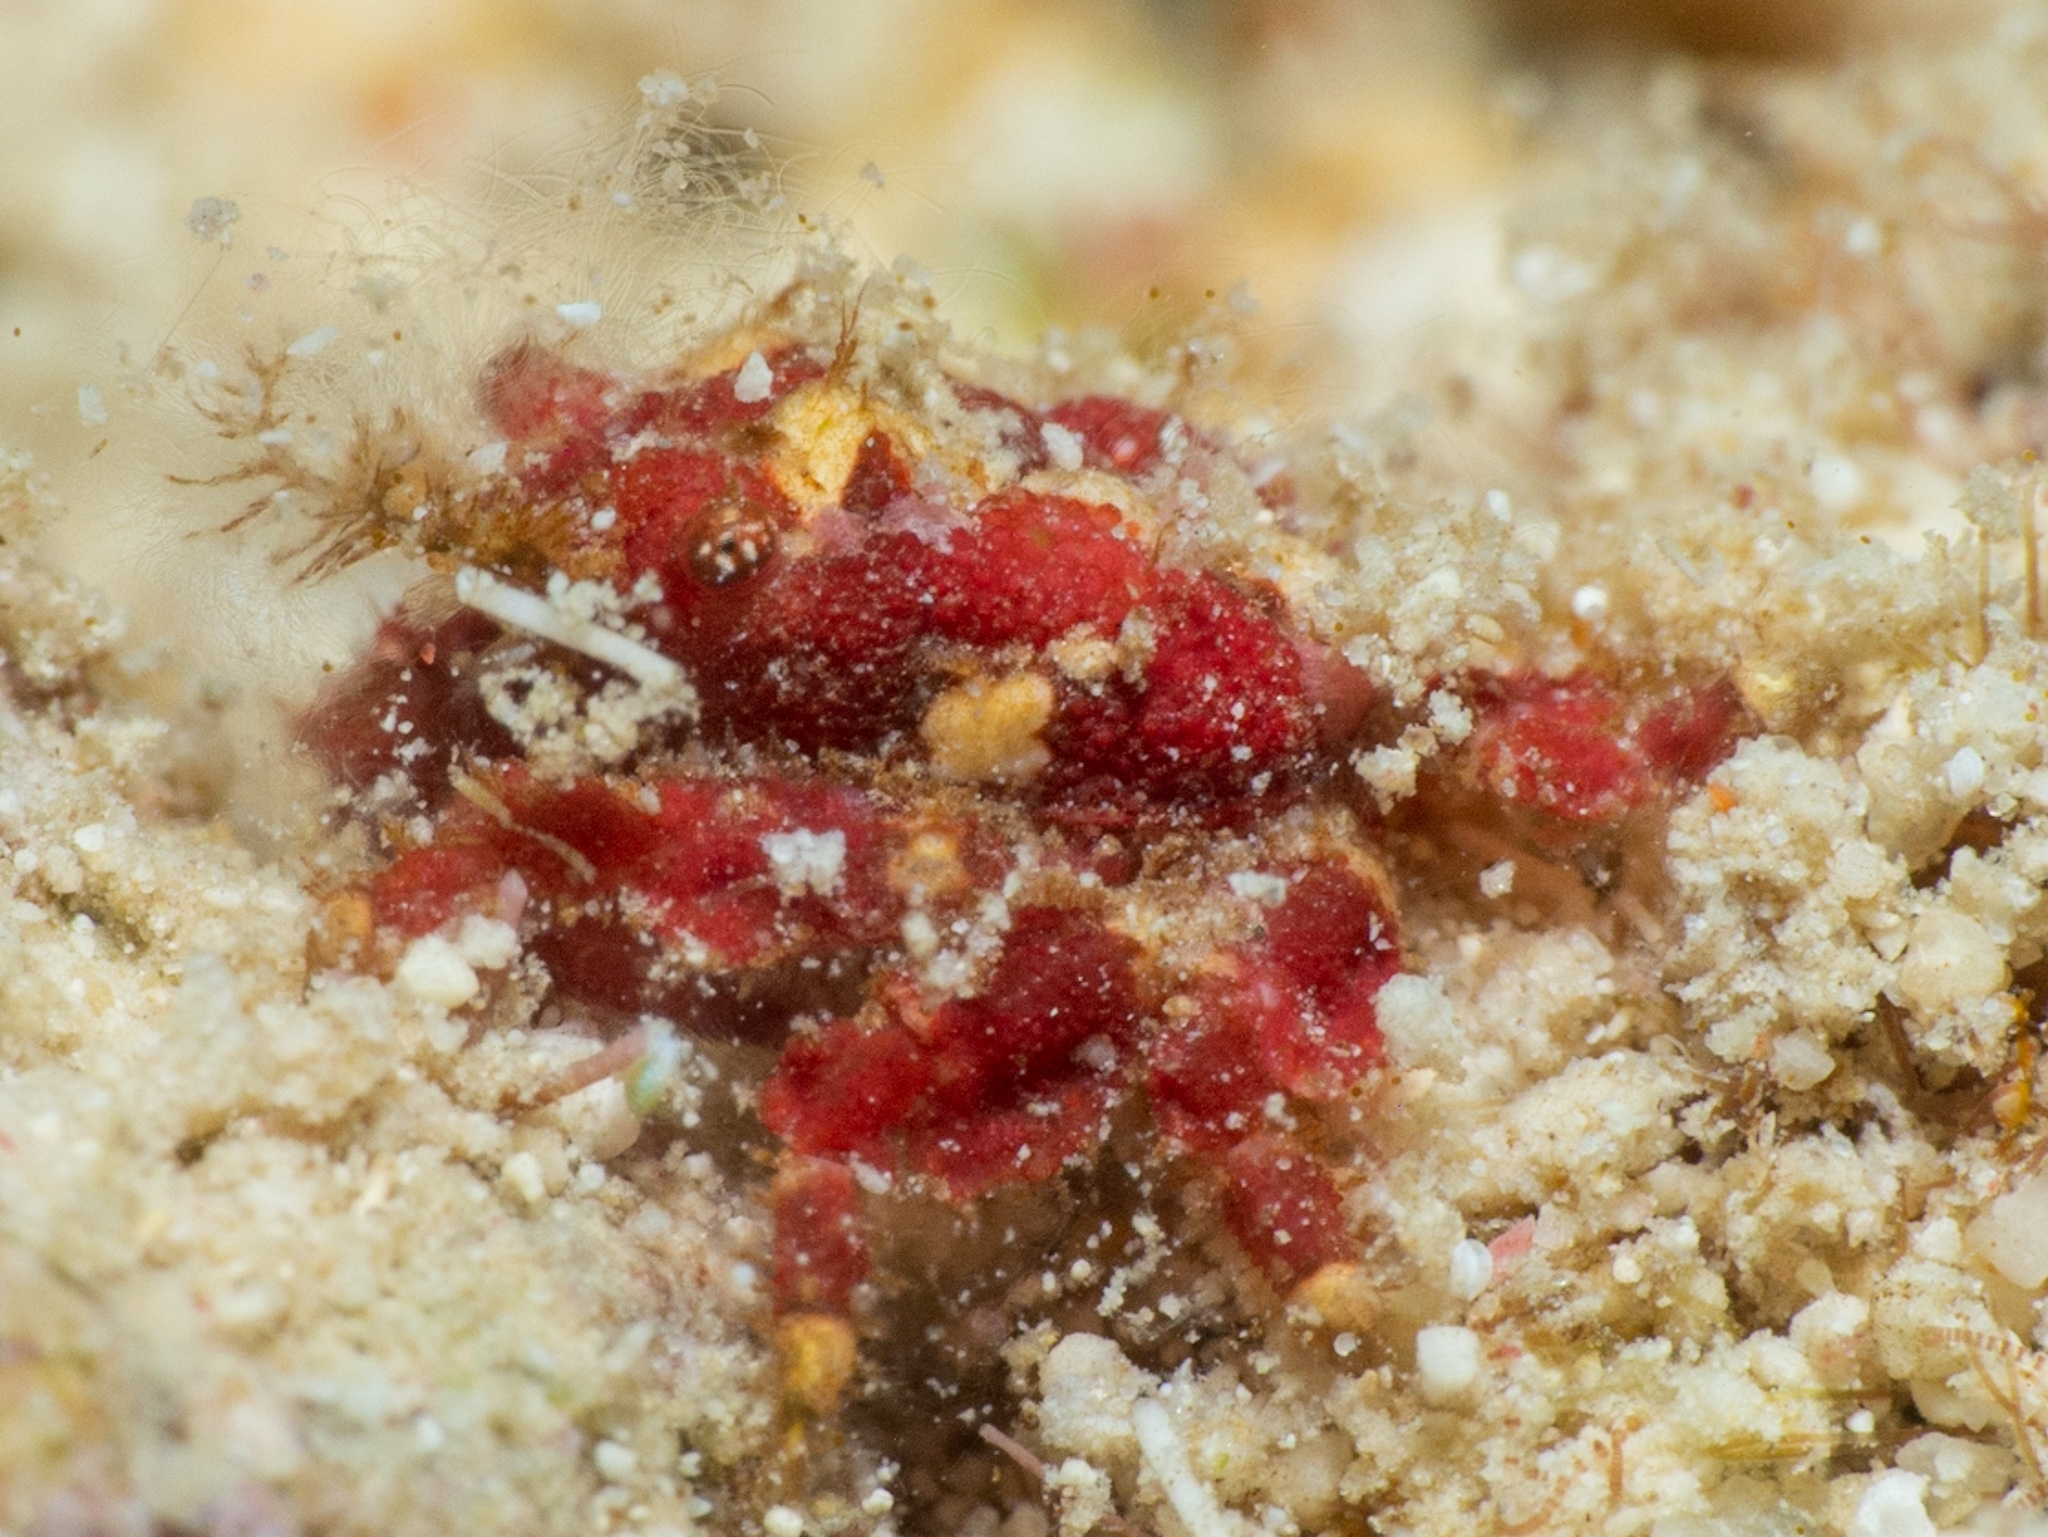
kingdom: Animalia
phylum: Arthropoda
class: Malacostraca
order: Decapoda
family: Mithracidae
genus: Thoe
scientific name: Thoe puella
